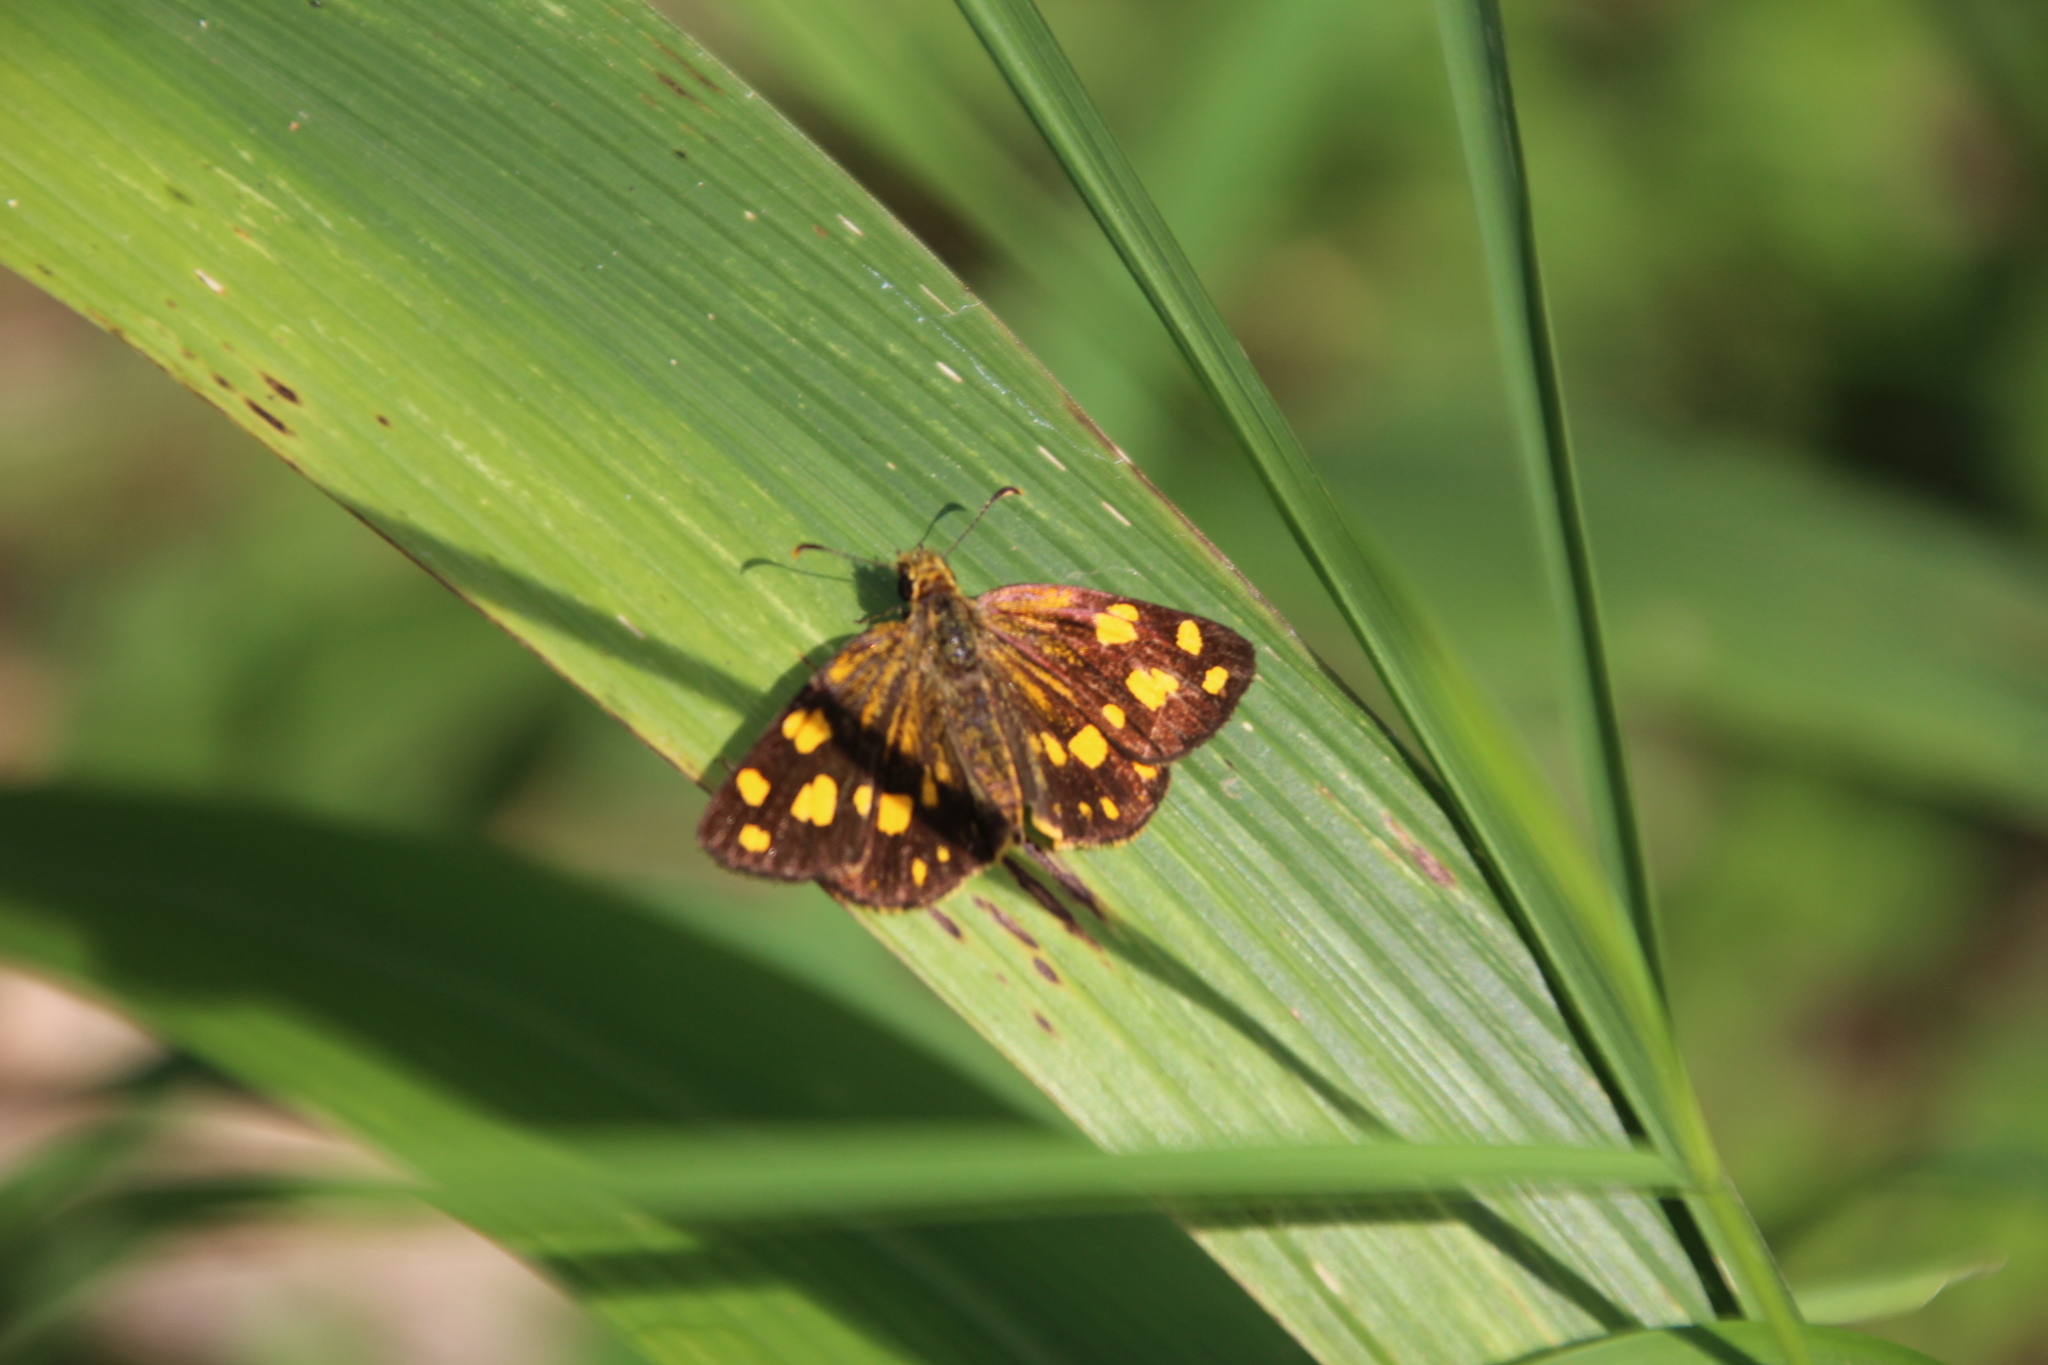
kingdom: Animalia
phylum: Arthropoda
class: Insecta
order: Lepidoptera
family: Hesperiidae
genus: Metisella
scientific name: Metisella metis
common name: Western gold-spotted sylph
